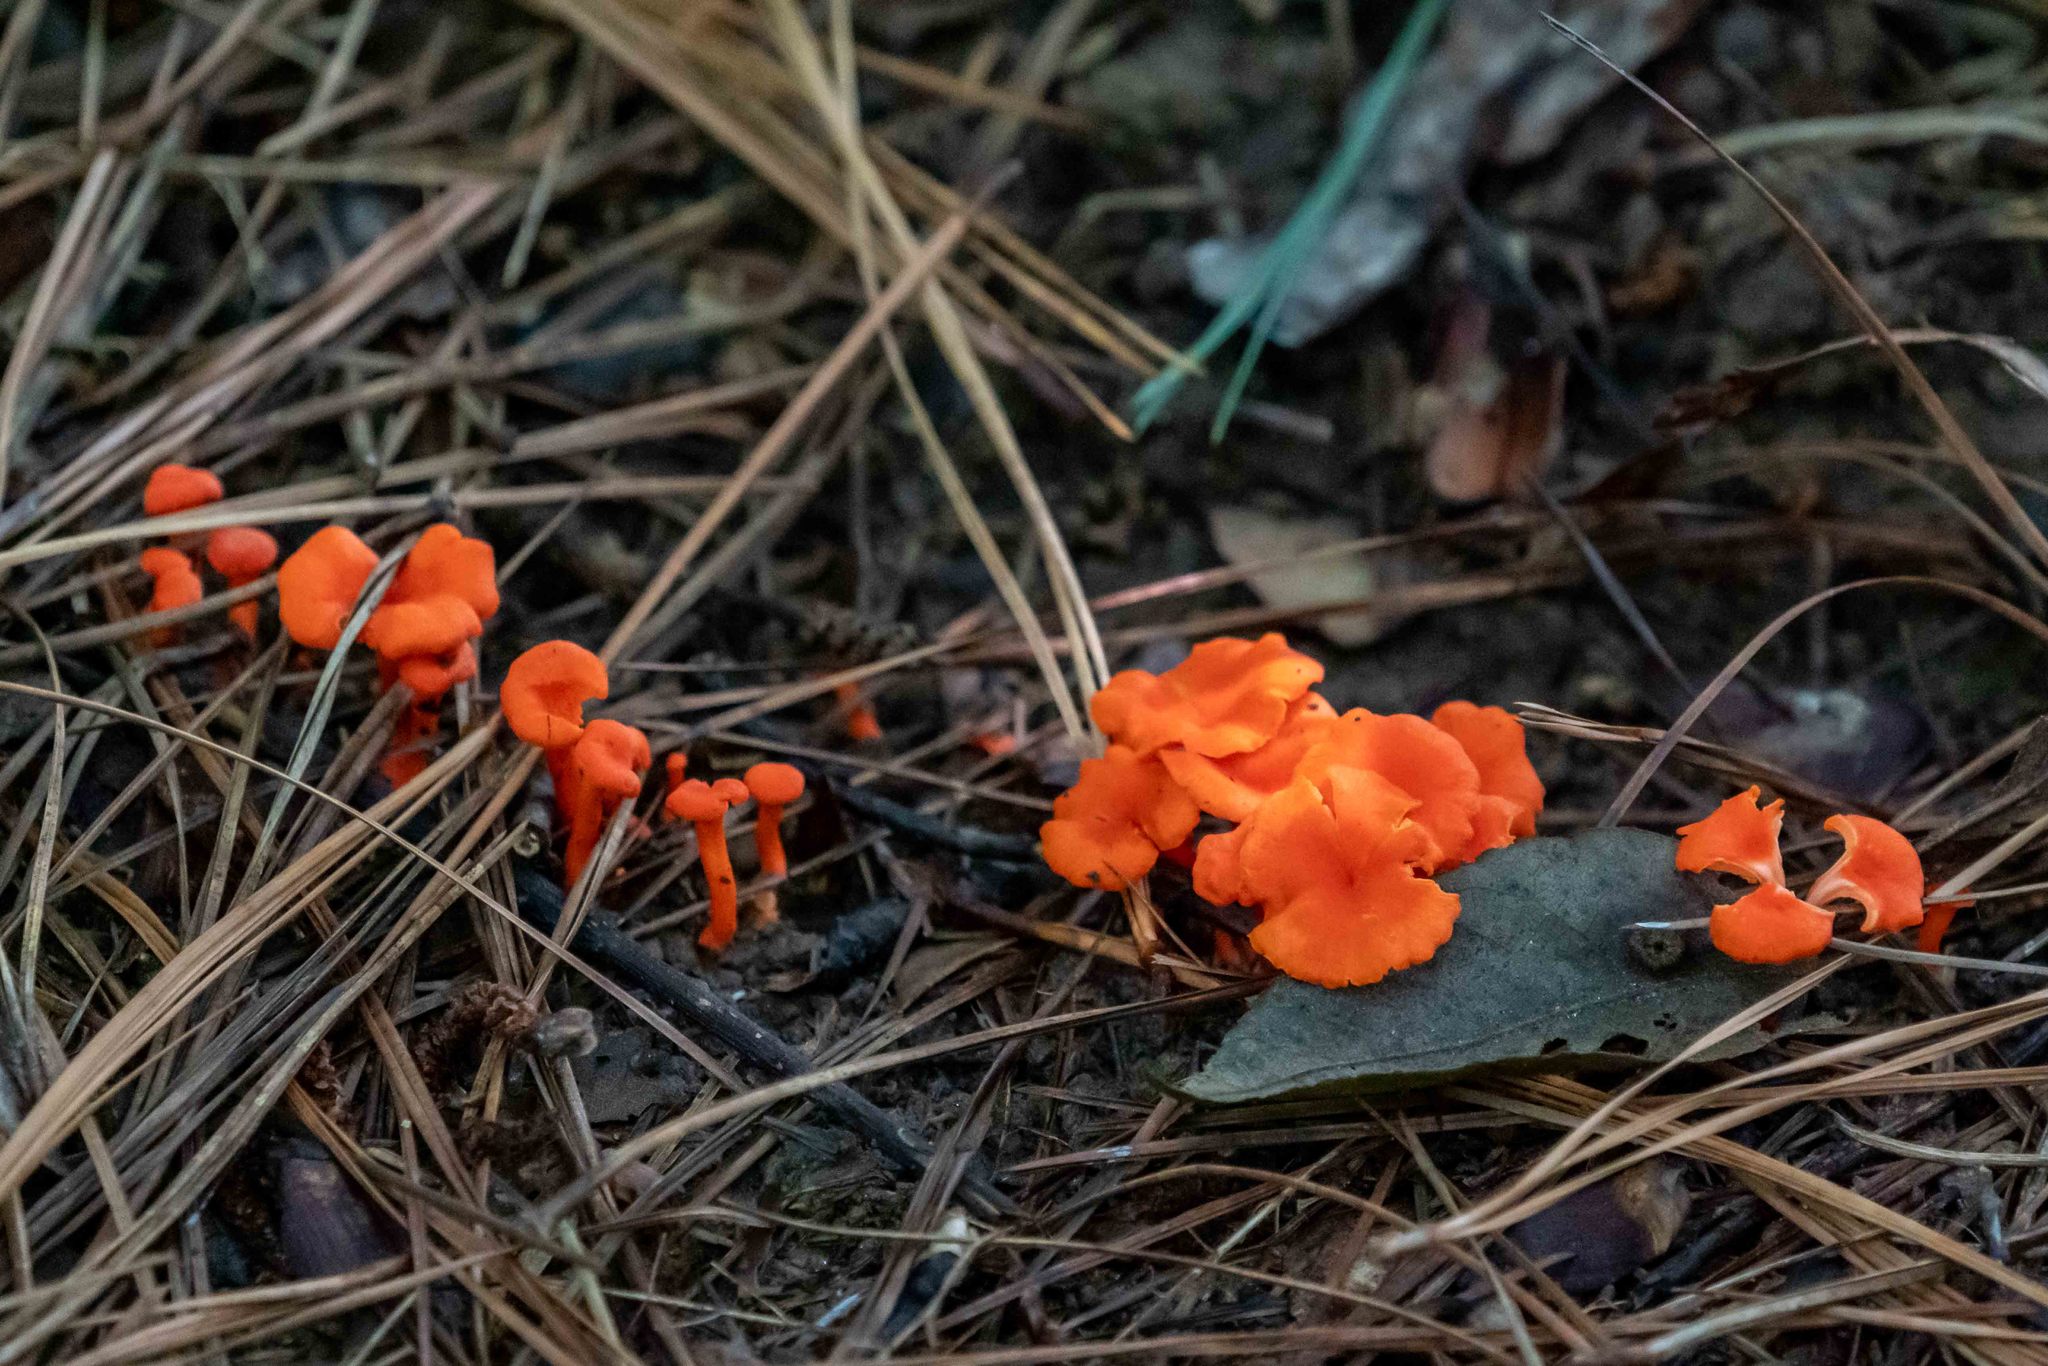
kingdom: Fungi
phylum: Basidiomycota
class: Agaricomycetes
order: Cantharellales
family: Hydnaceae
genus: Cantharellus
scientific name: Cantharellus cinnabarinus
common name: Cinnabar chanterelle
